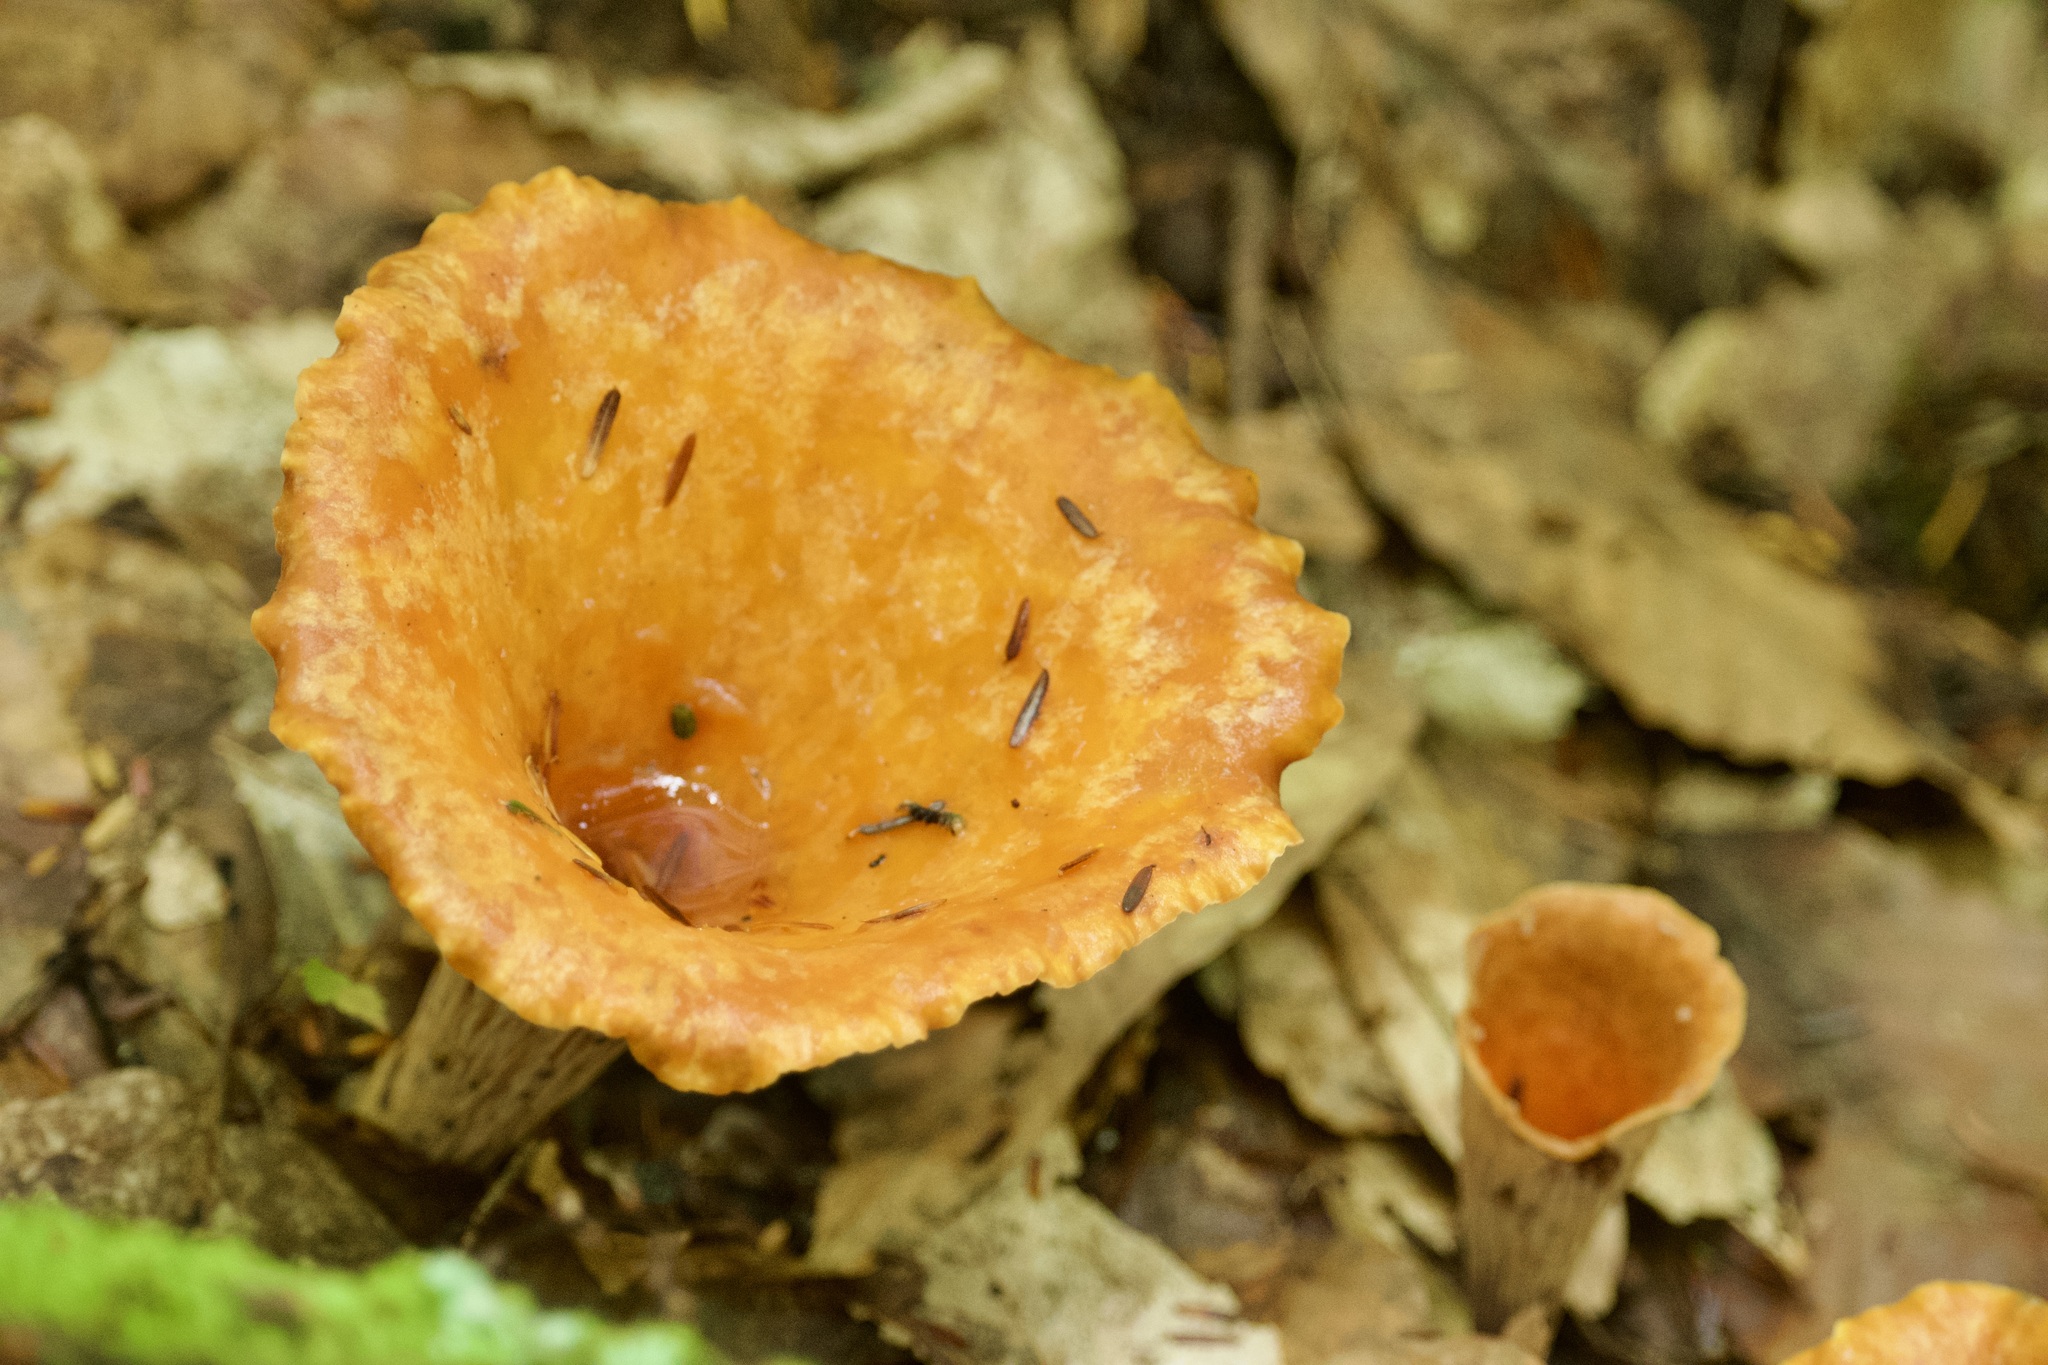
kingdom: Fungi
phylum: Basidiomycota
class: Agaricomycetes
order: Gomphales
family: Gomphaceae
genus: Turbinellus
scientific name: Turbinellus floccosus
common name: Scaly chanterelle
